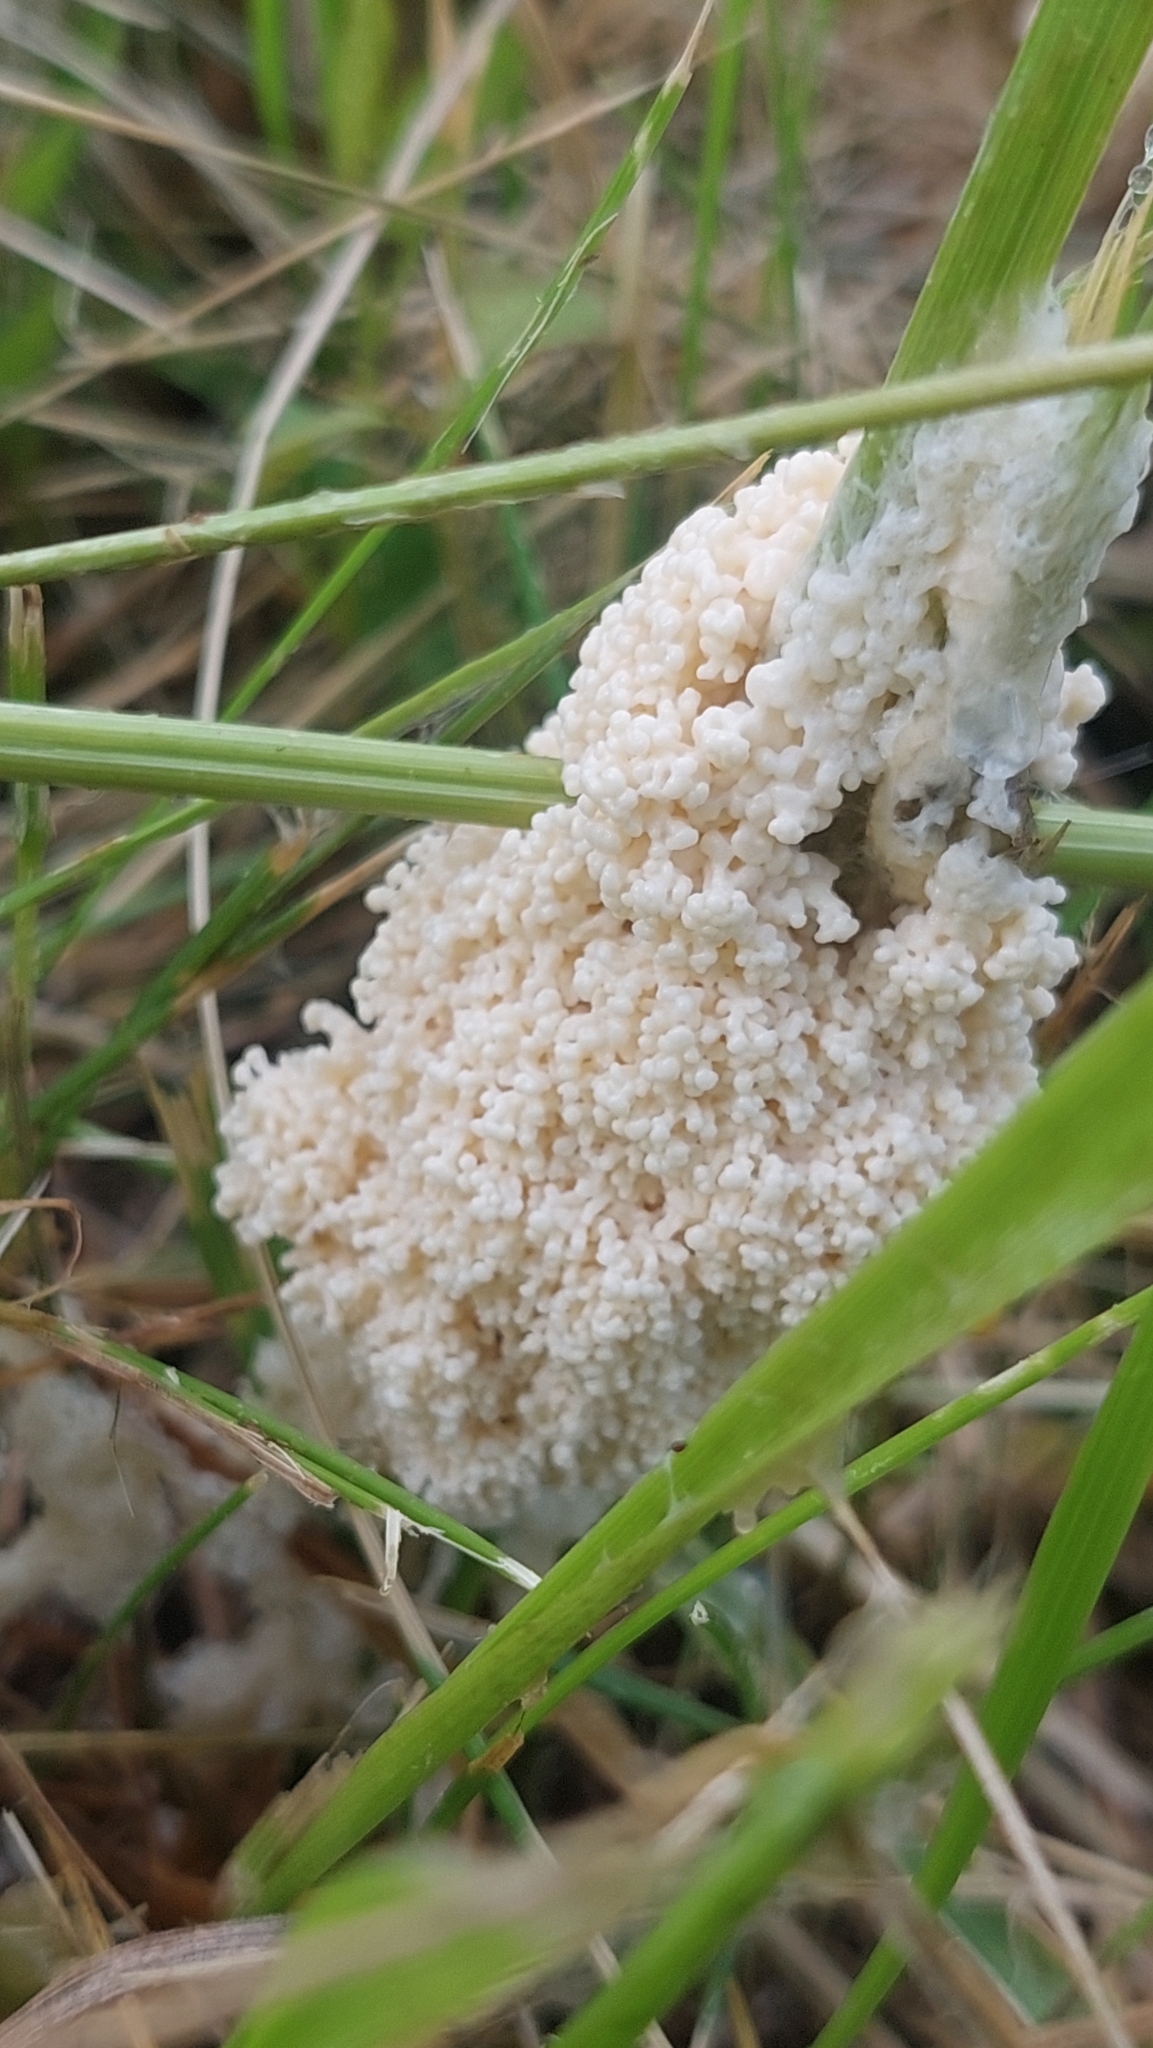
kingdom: Protozoa
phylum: Mycetozoa
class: Myxomycetes
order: Physarales
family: Physaraceae
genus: Didymium
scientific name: Didymium
